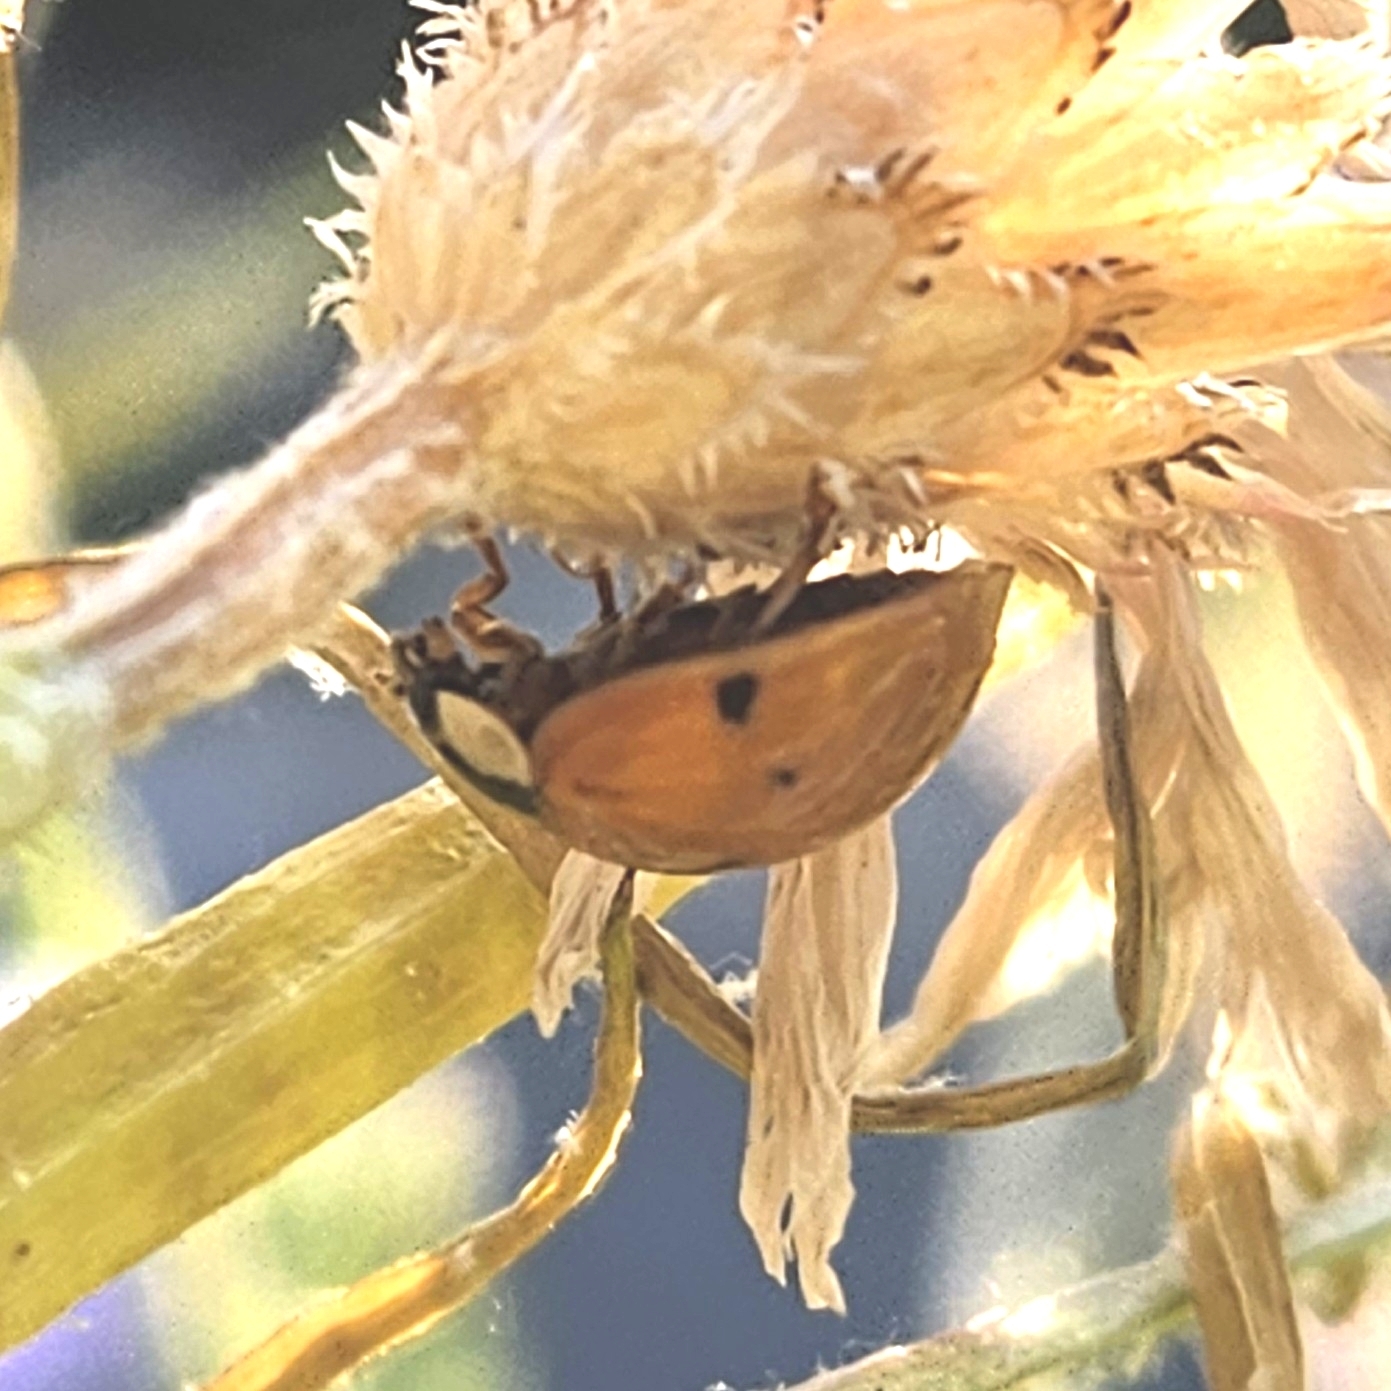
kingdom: Animalia
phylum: Arthropoda
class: Insecta
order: Coleoptera
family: Coccinellidae
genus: Harmonia
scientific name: Harmonia axyridis
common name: Harlequin ladybird
